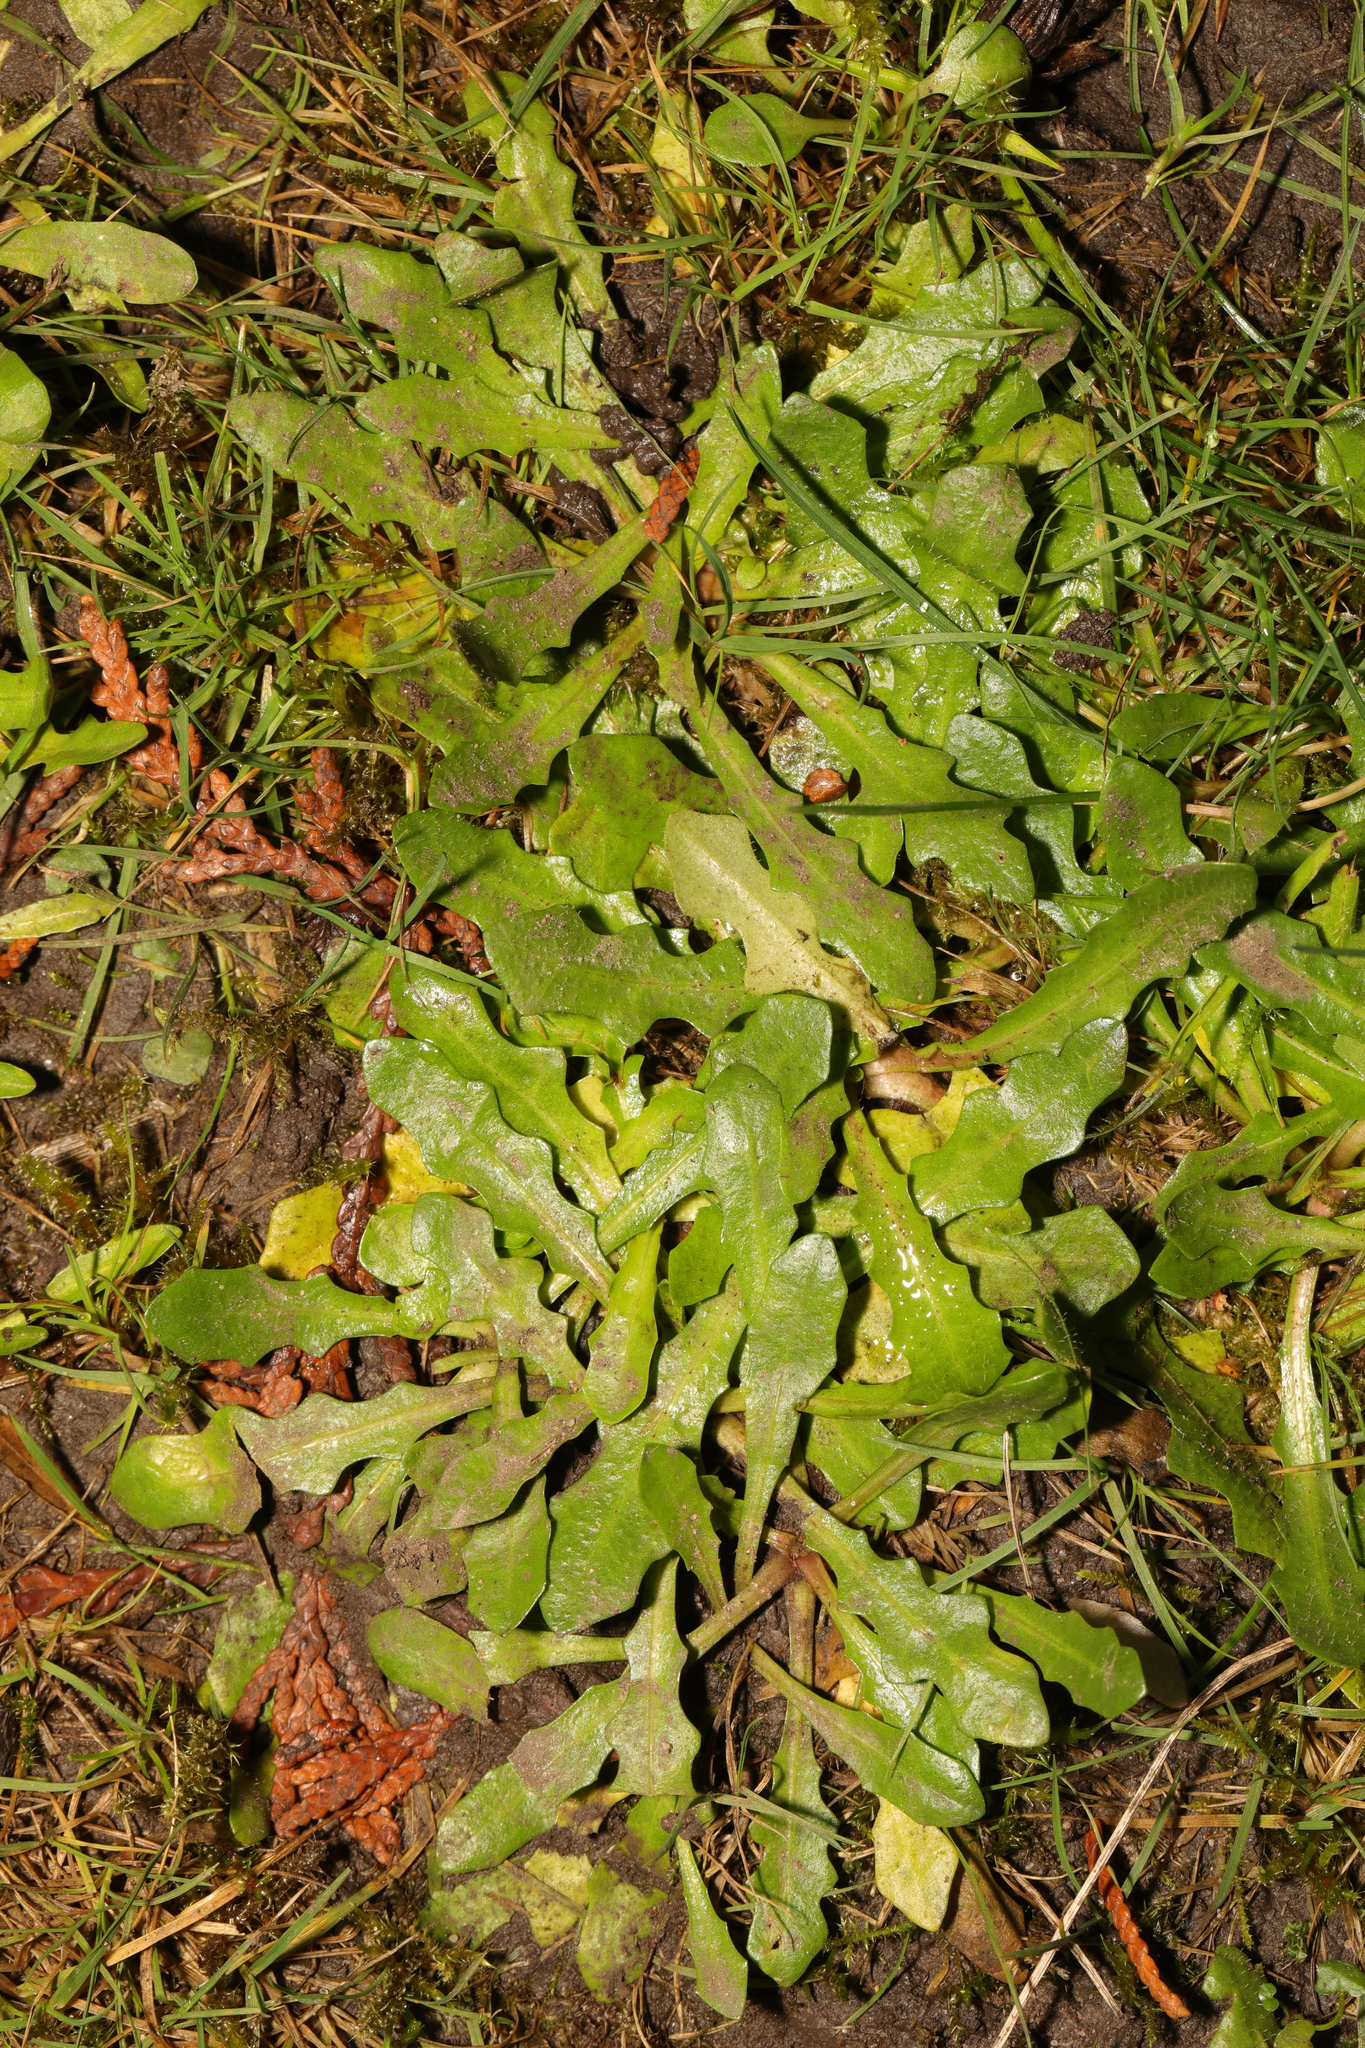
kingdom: Plantae
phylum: Tracheophyta
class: Magnoliopsida
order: Asterales
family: Asteraceae
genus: Hypochaeris
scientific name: Hypochaeris radicata
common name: Flatweed
